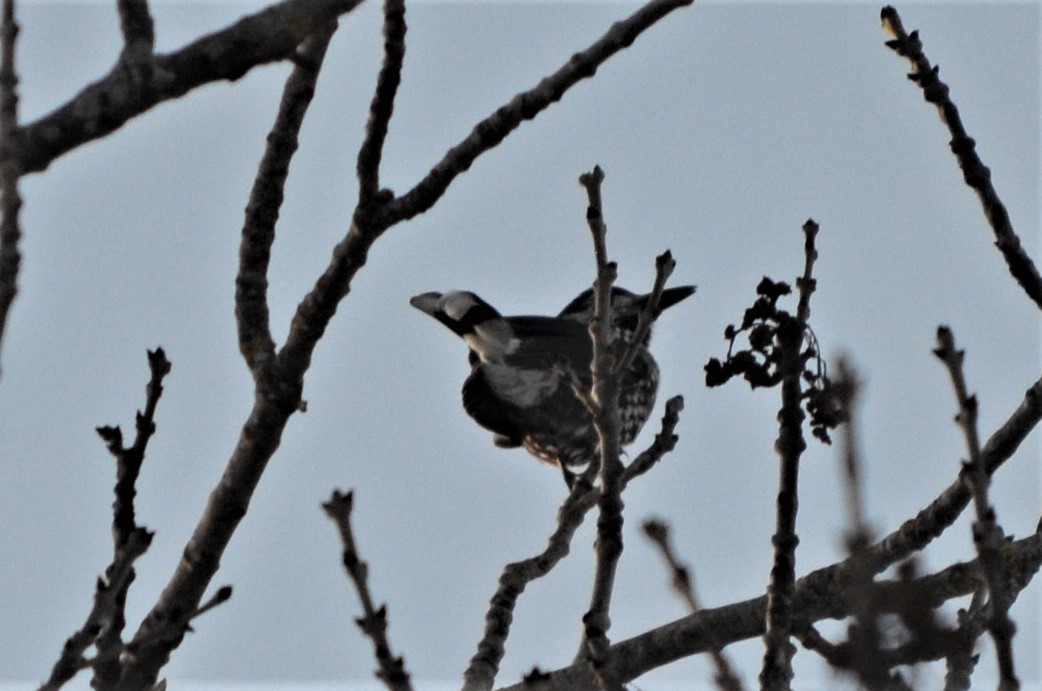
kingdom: Animalia
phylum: Chordata
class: Aves
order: Passeriformes
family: Corvidae
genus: Nucifraga
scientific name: Nucifraga caryocatactes
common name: Spotted nutcracker
